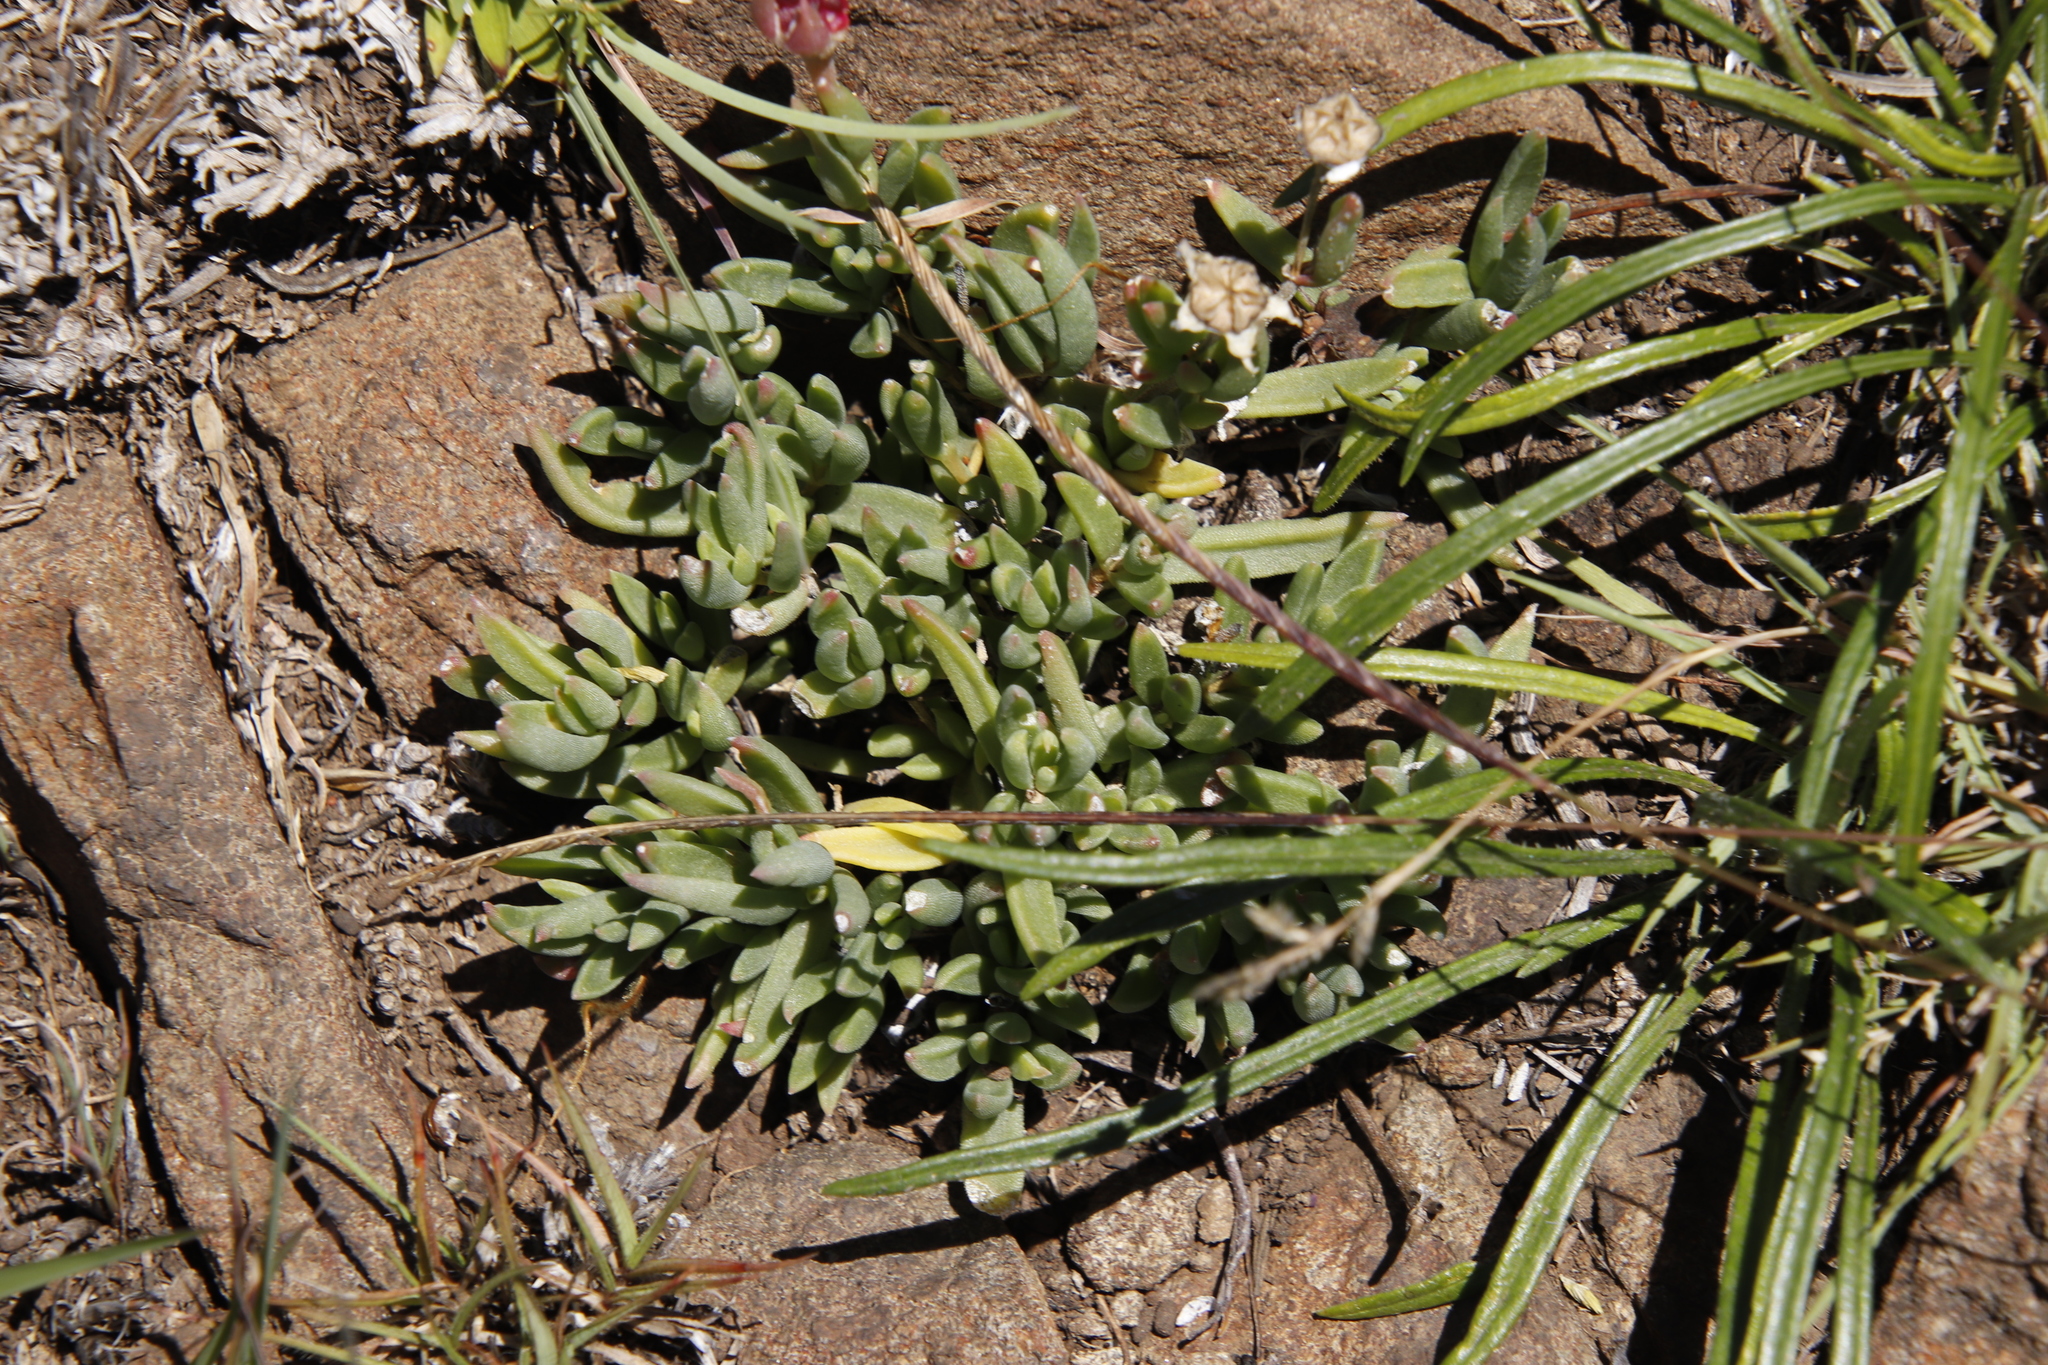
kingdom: Plantae
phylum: Tracheophyta
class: Magnoliopsida
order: Caryophyllales
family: Aizoaceae
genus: Delosperma
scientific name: Delosperma basuticum
